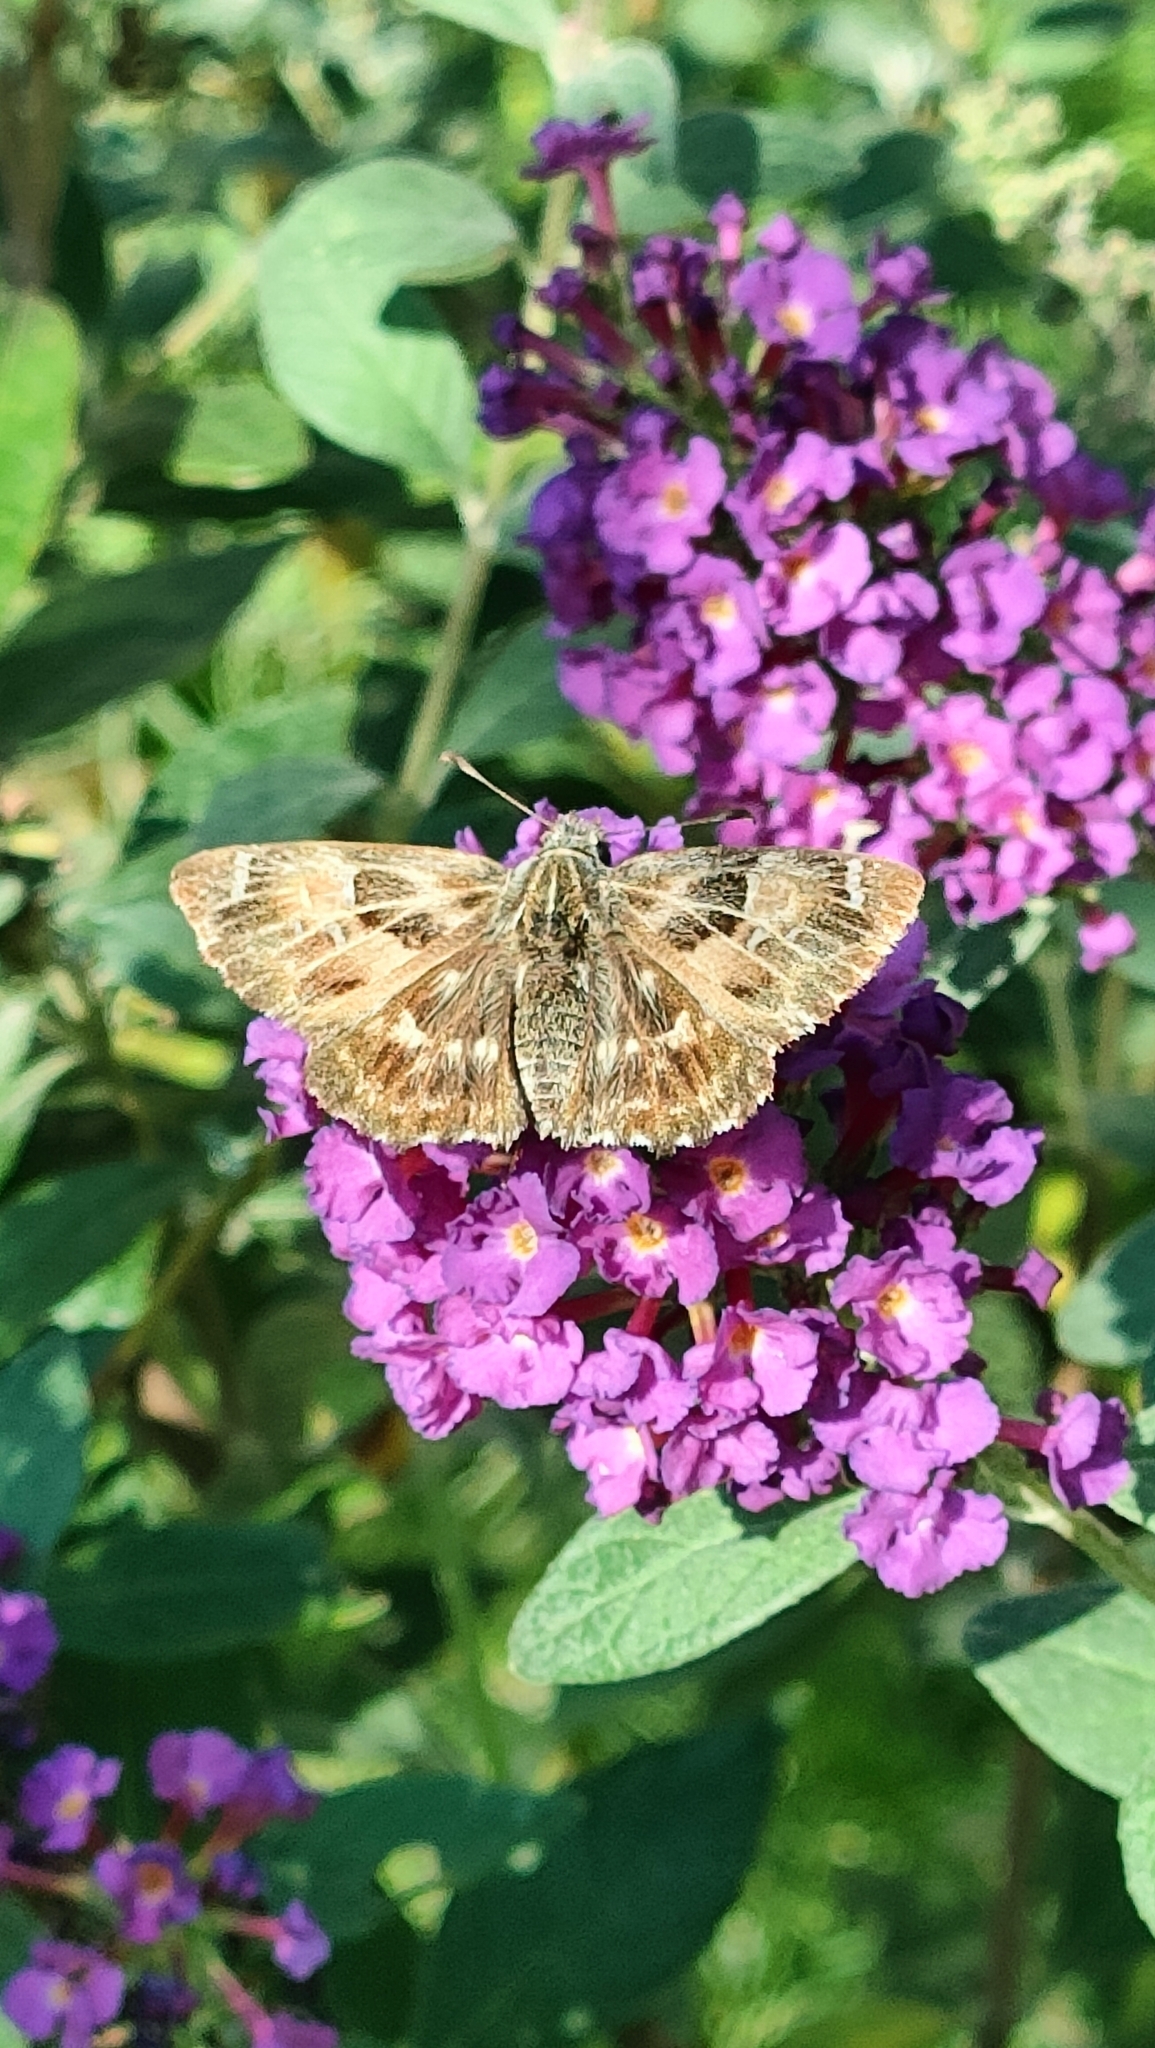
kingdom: Animalia
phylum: Arthropoda
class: Insecta
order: Lepidoptera
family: Hesperiidae
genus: Carcharodus
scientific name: Carcharodus alceae
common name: Mallow skipper
